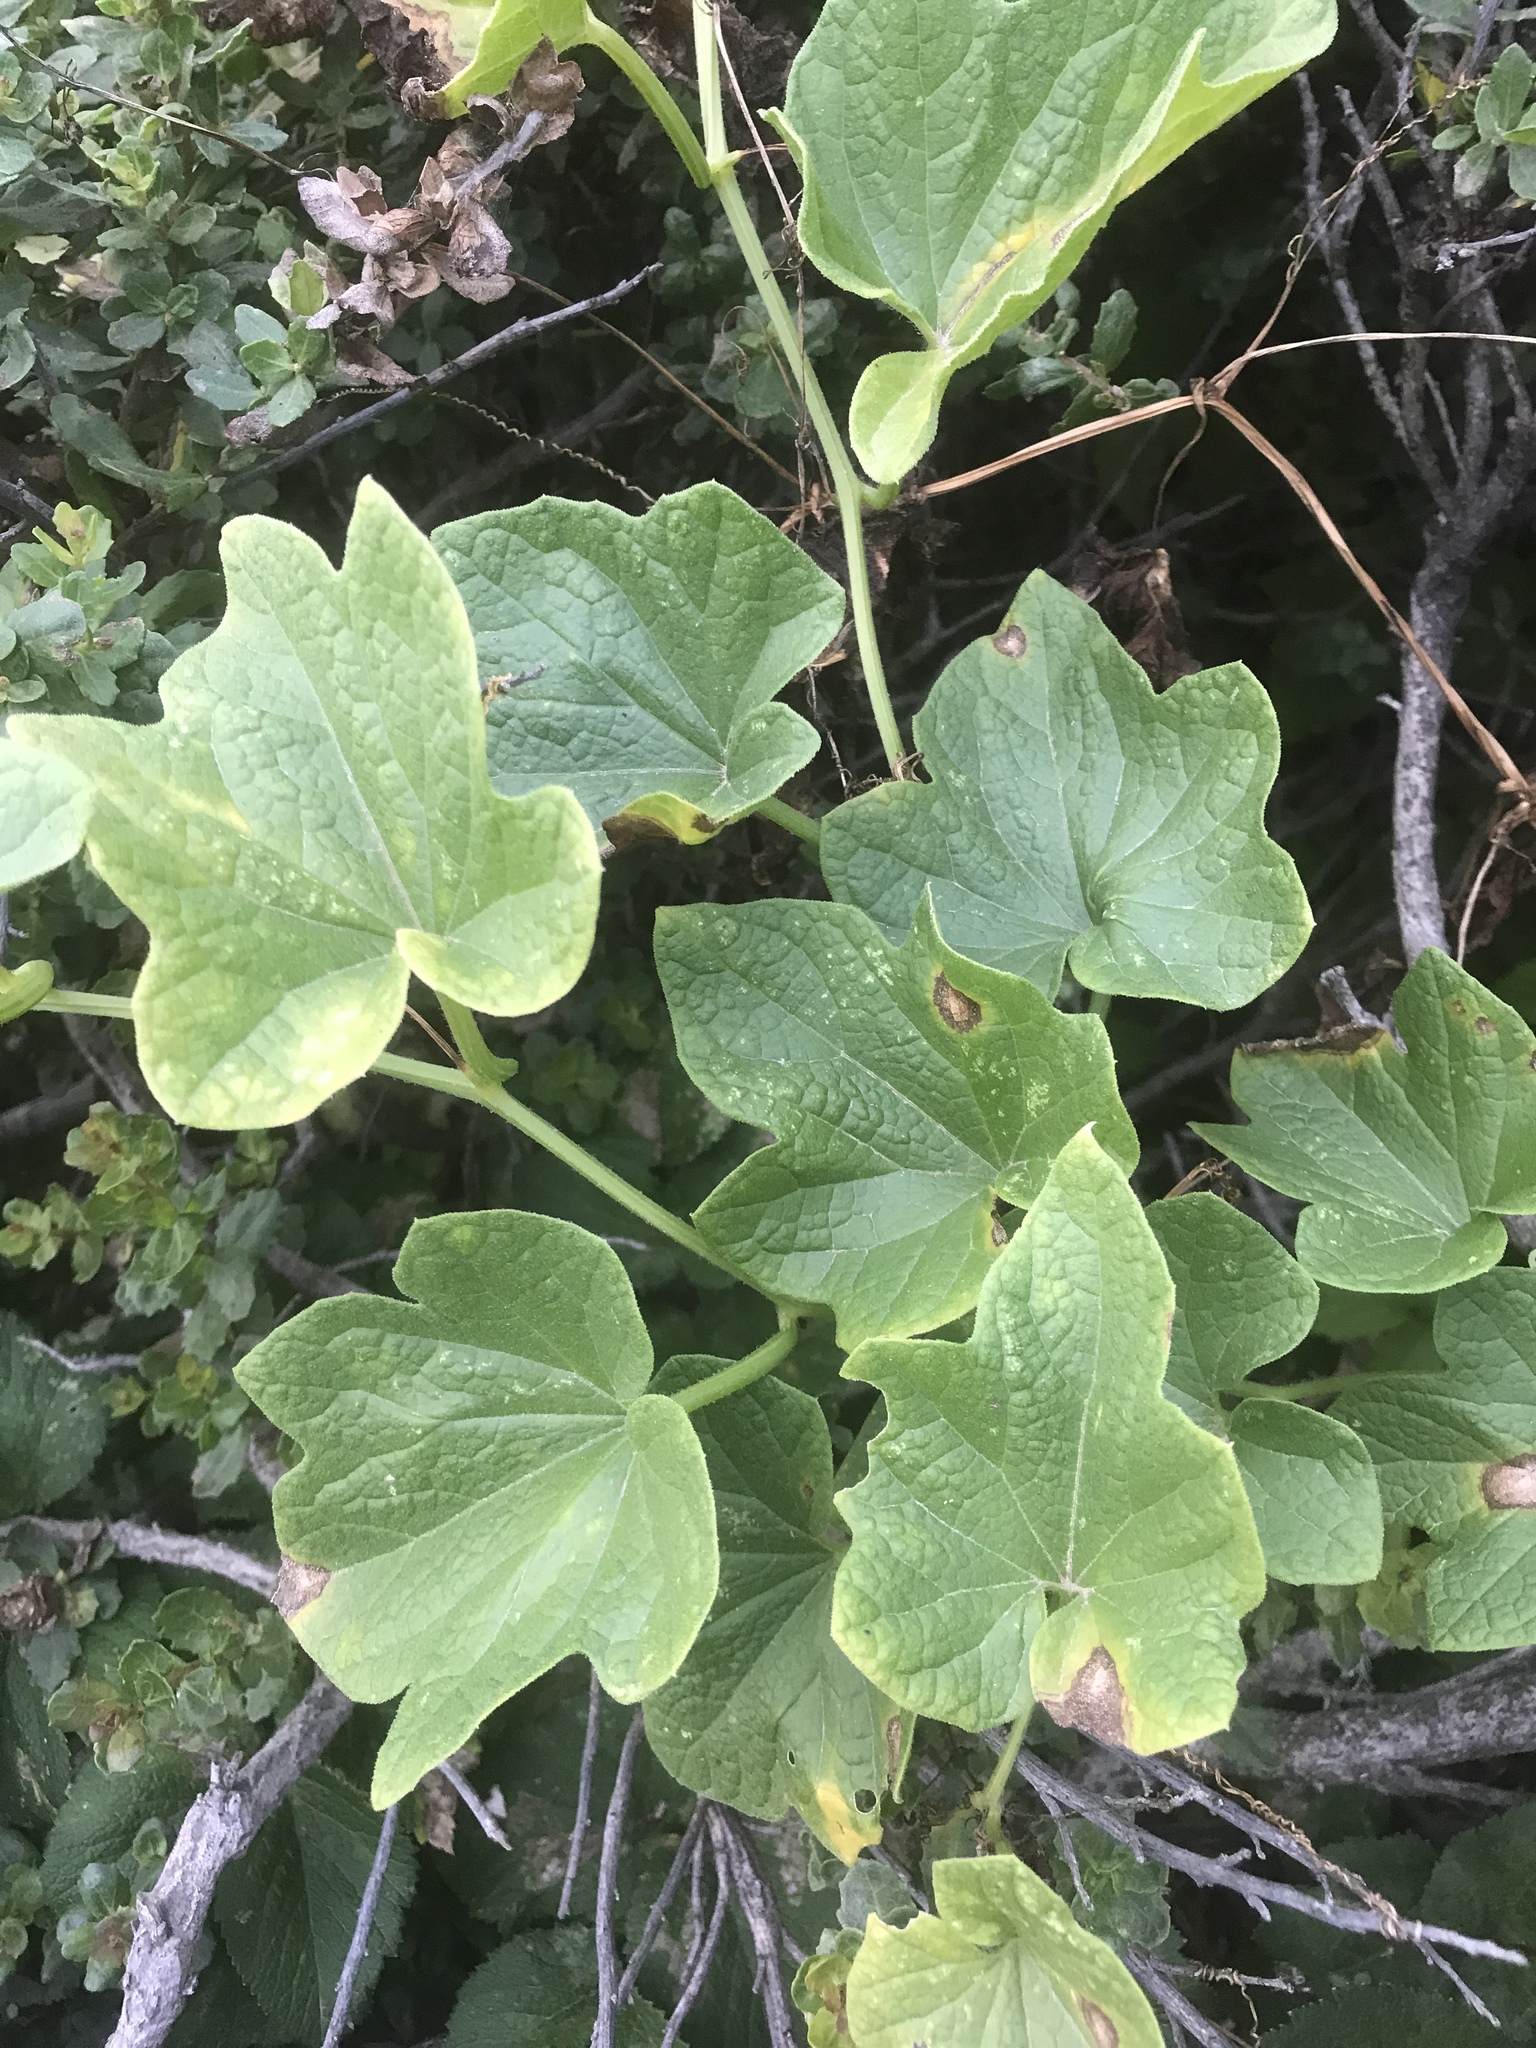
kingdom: Plantae
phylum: Tracheophyta
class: Magnoliopsida
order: Cucurbitales
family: Cucurbitaceae
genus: Marah
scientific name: Marah oregana
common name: Coastal manroot
